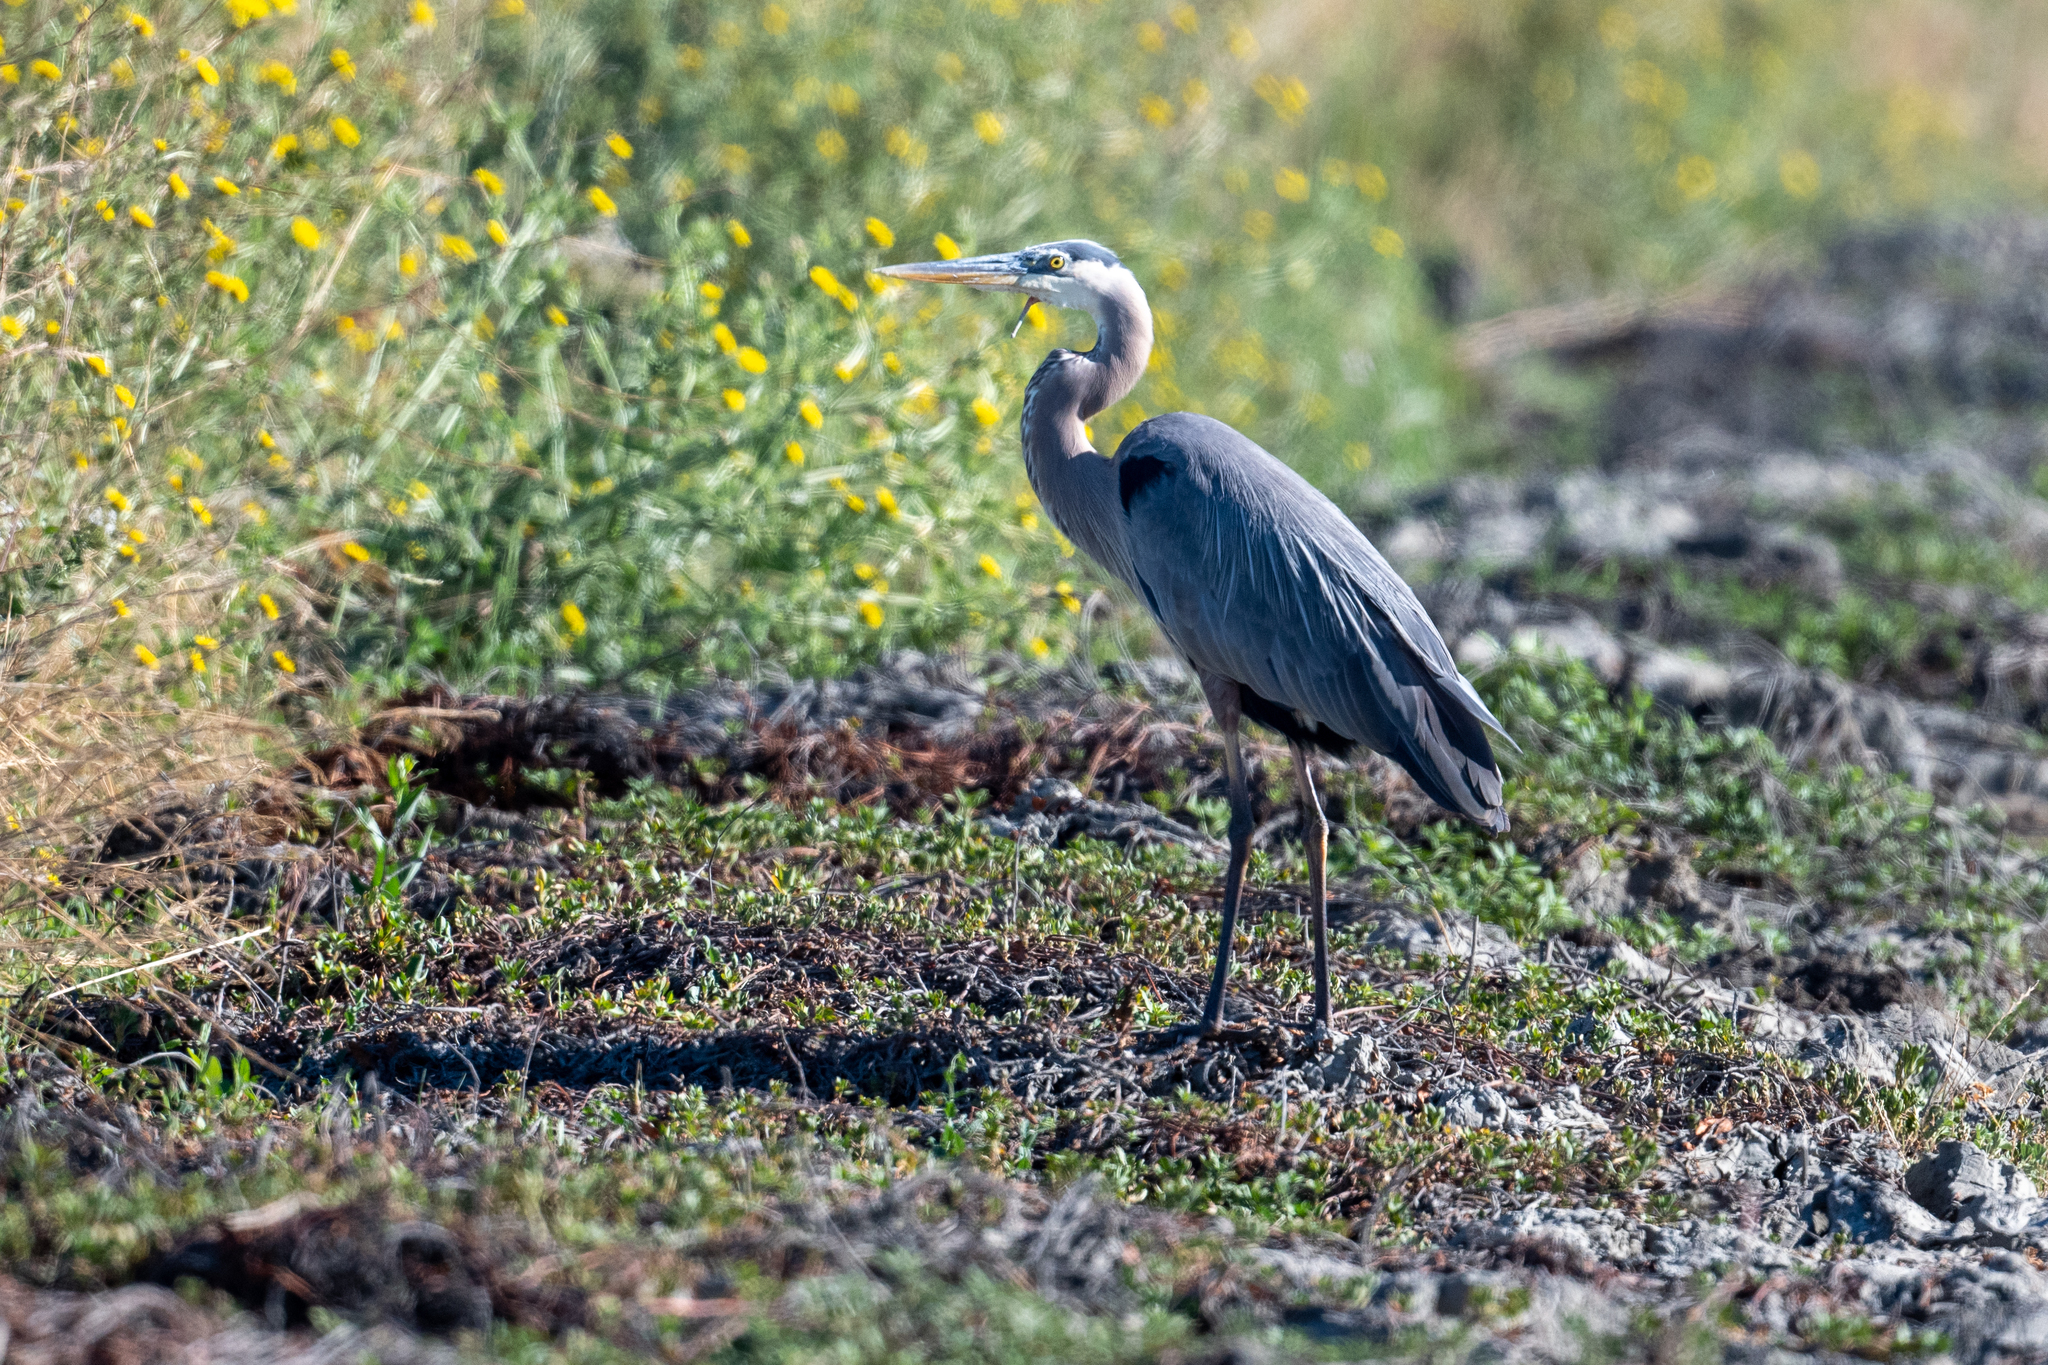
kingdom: Animalia
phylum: Chordata
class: Aves
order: Pelecaniformes
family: Ardeidae
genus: Ardea
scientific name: Ardea herodias
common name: Great blue heron
